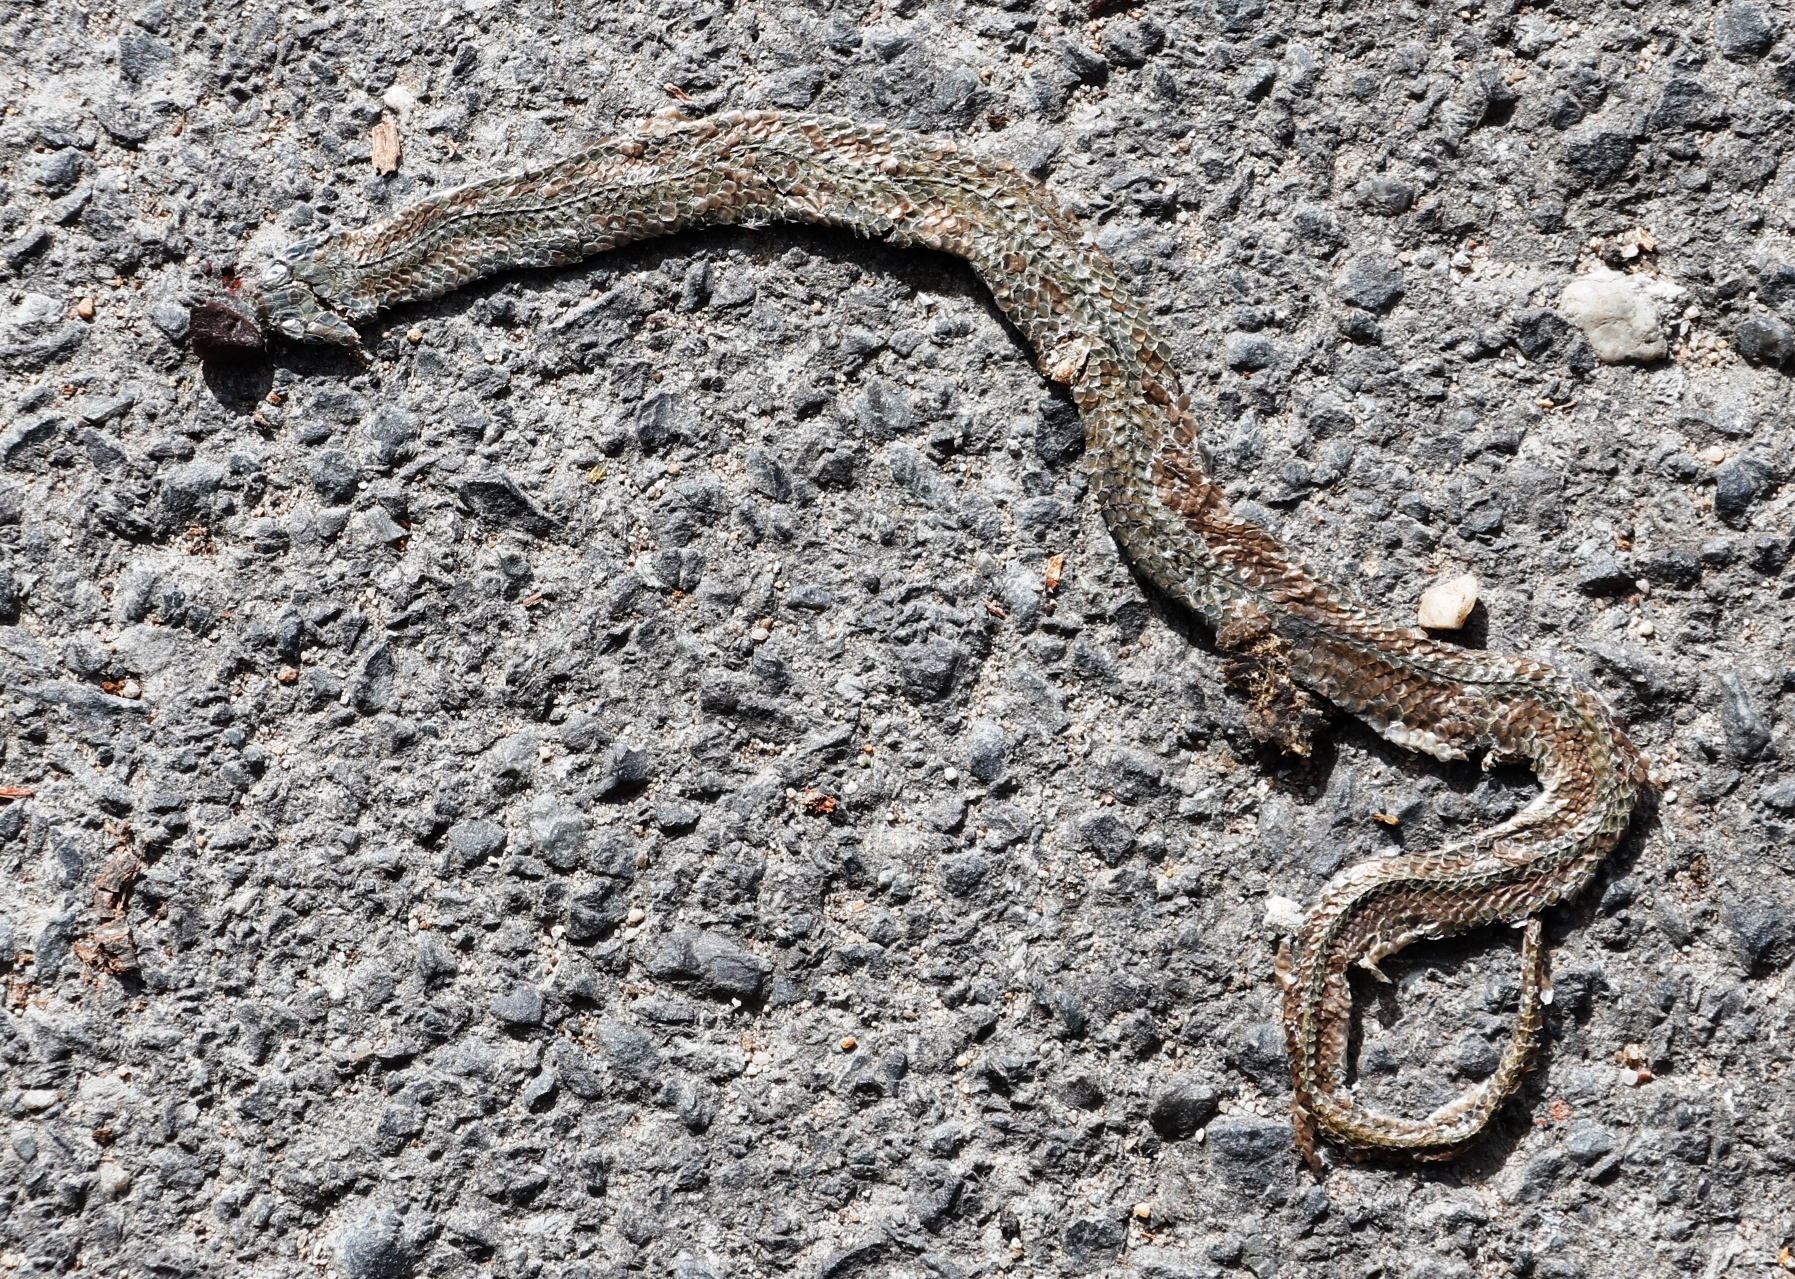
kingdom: Animalia
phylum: Chordata
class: Squamata
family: Pseudoxyrhophiidae
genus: Duberria
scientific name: Duberria lutrix
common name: Common slug eater
